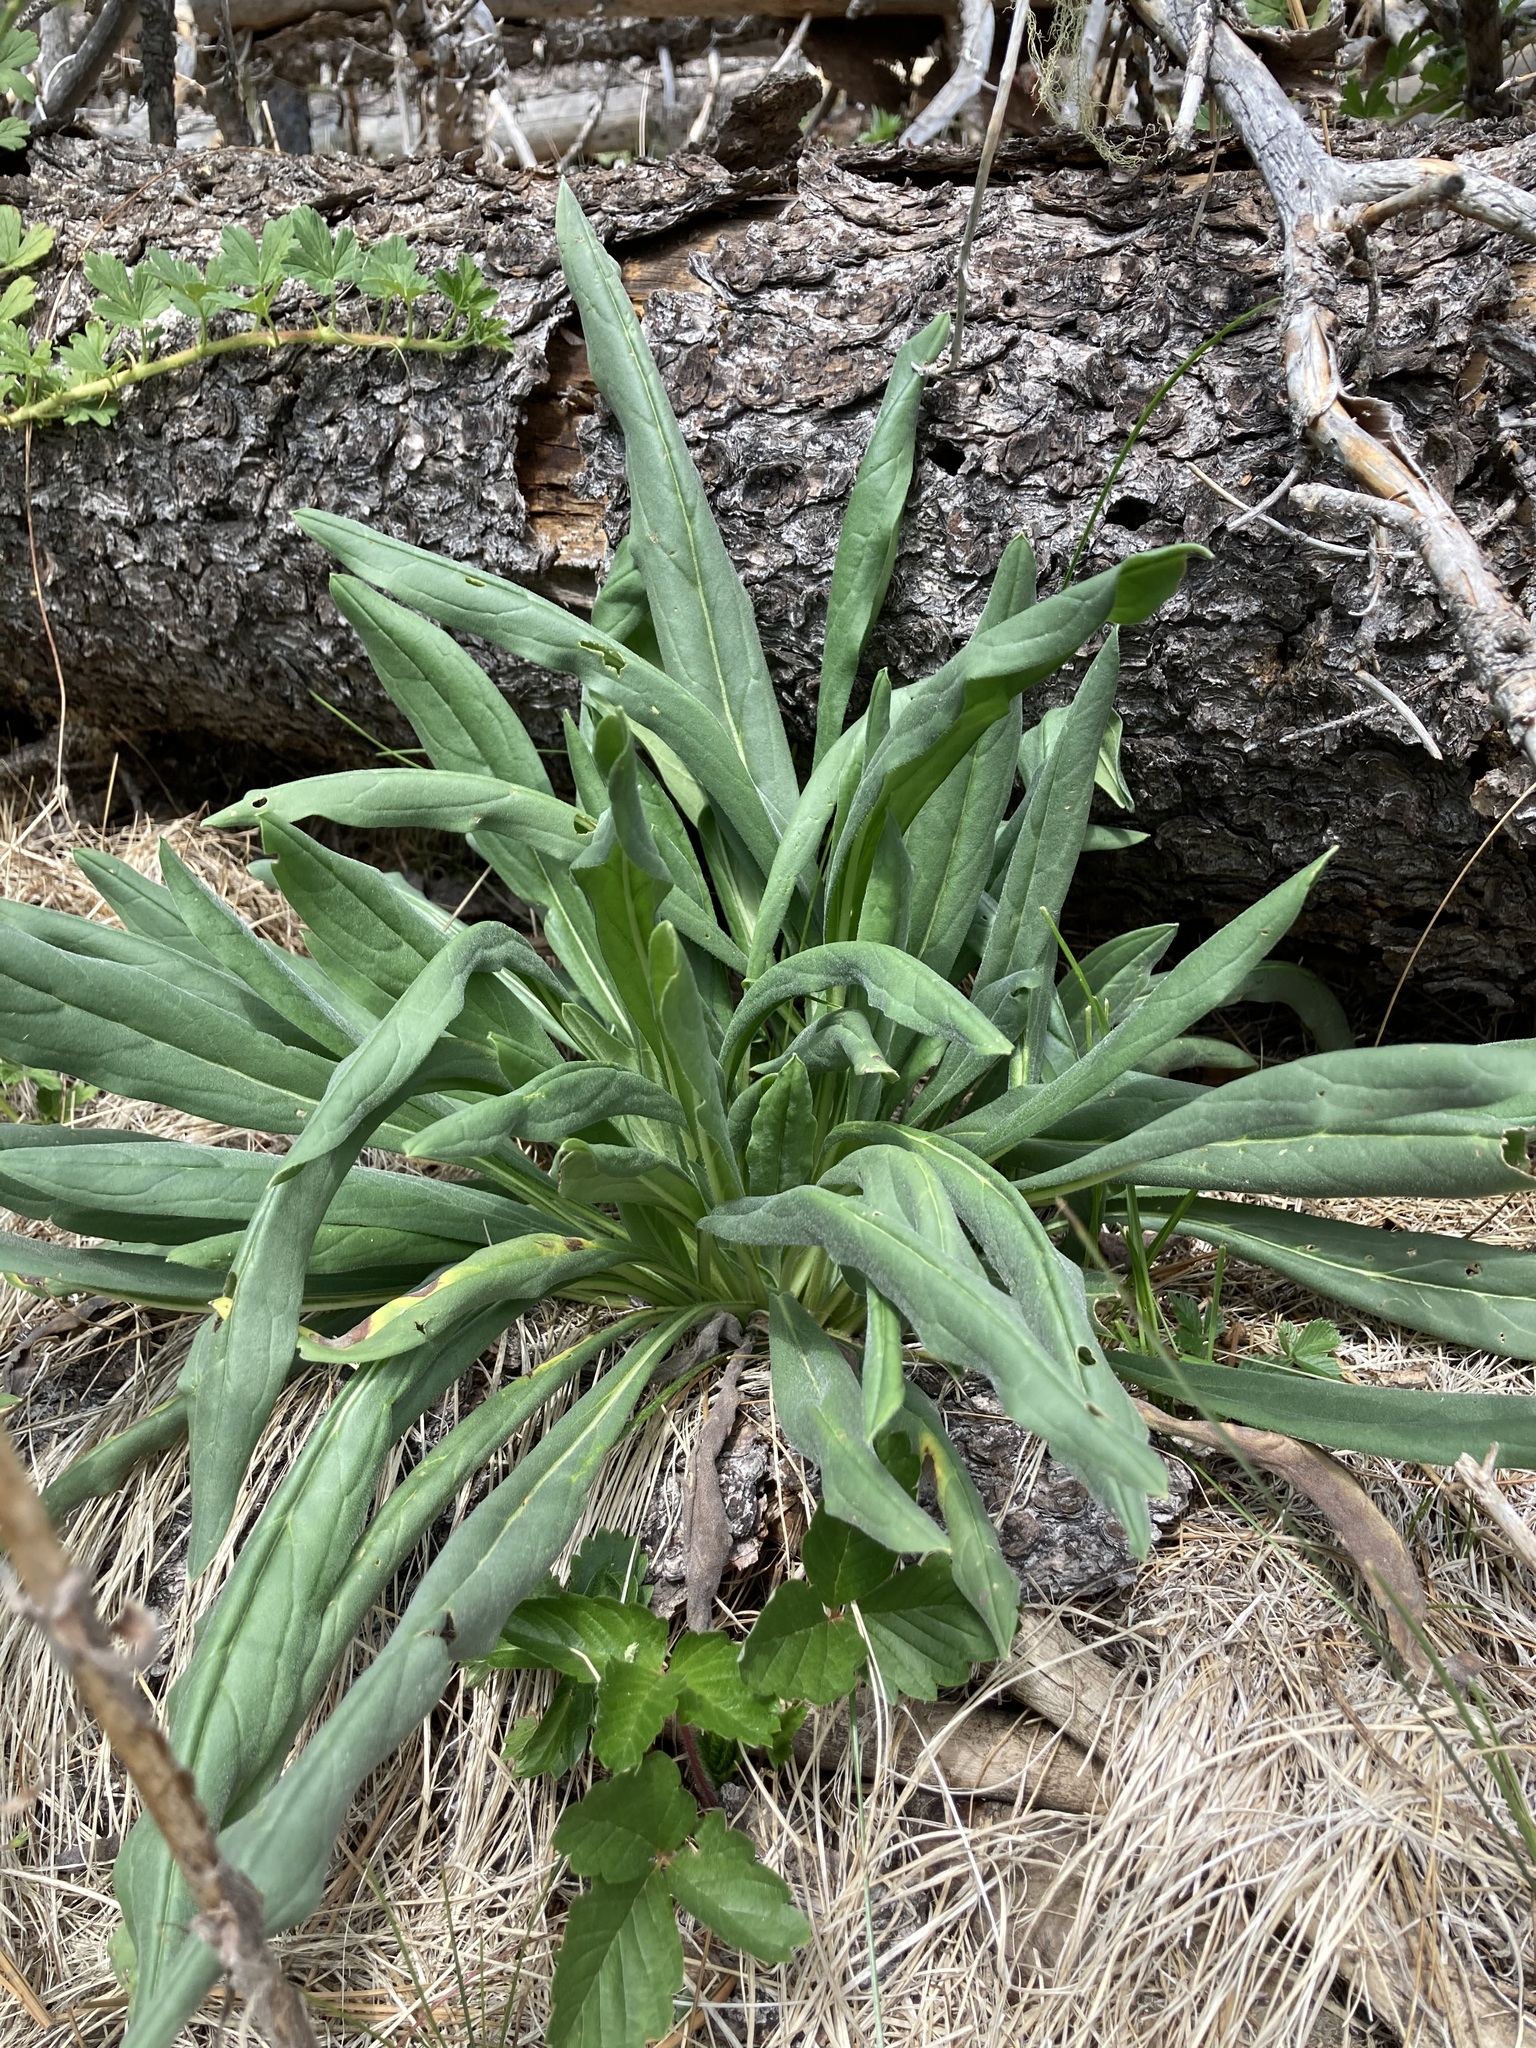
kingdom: Plantae
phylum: Tracheophyta
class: Magnoliopsida
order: Boraginales
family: Boraginaceae
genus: Hackelia
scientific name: Hackelia floribunda
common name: Large-flowered stickseed
